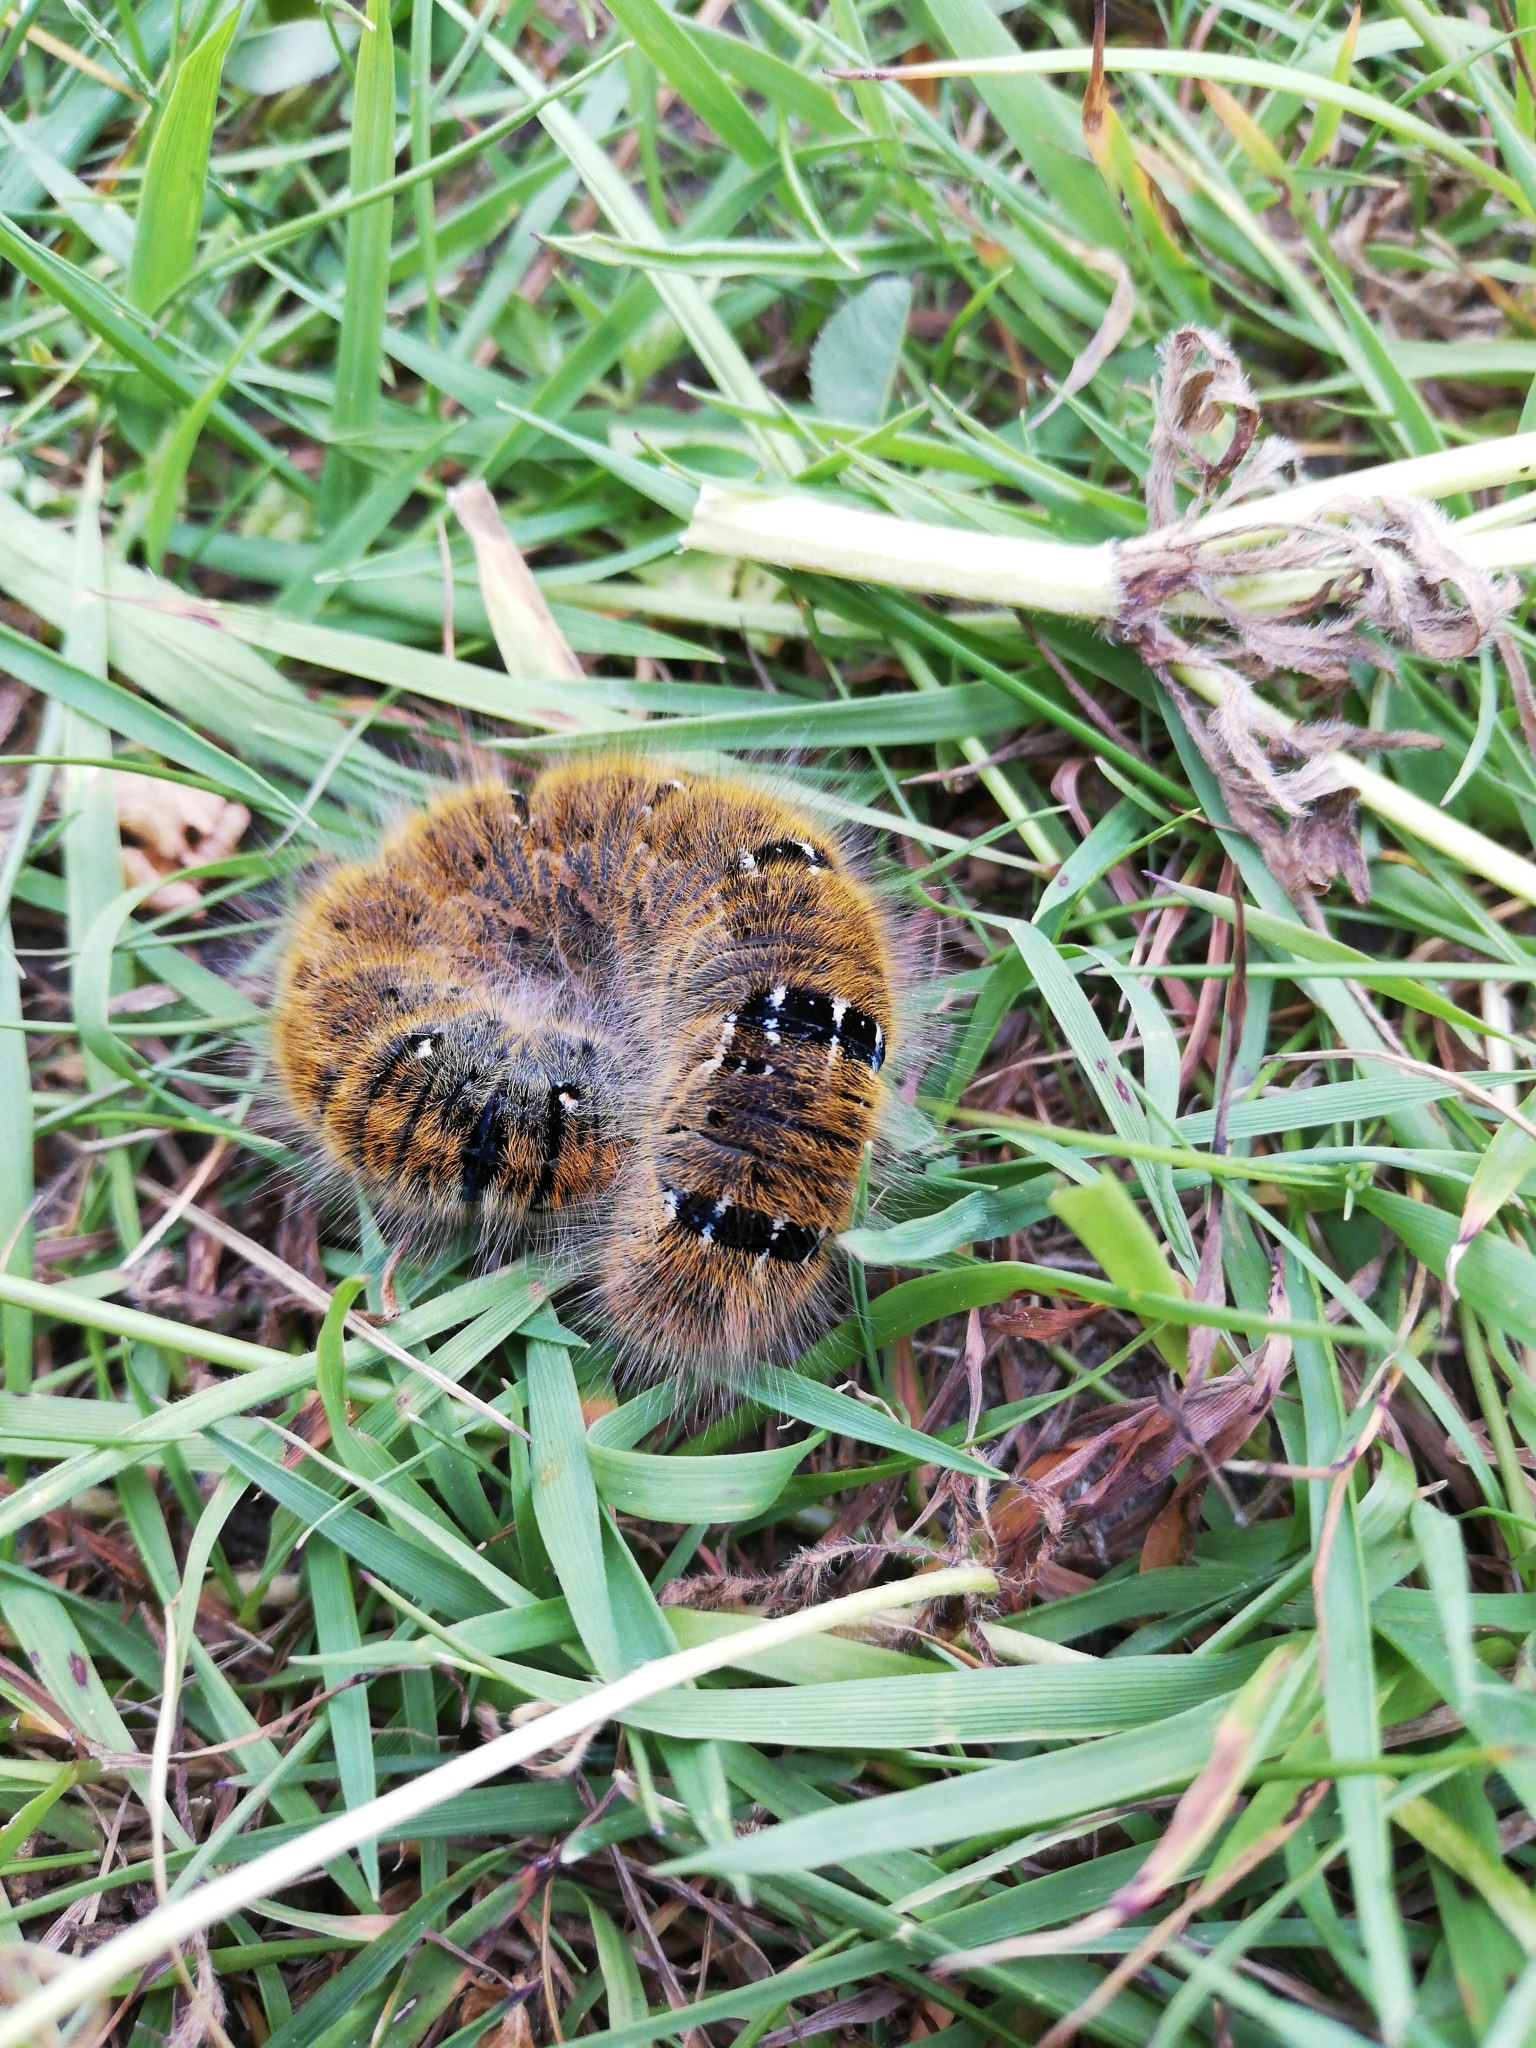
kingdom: Animalia
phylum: Arthropoda
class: Insecta
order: Lepidoptera
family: Lasiocampidae
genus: Lasiocampa
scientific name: Lasiocampa trifolii
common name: Grass eggar
